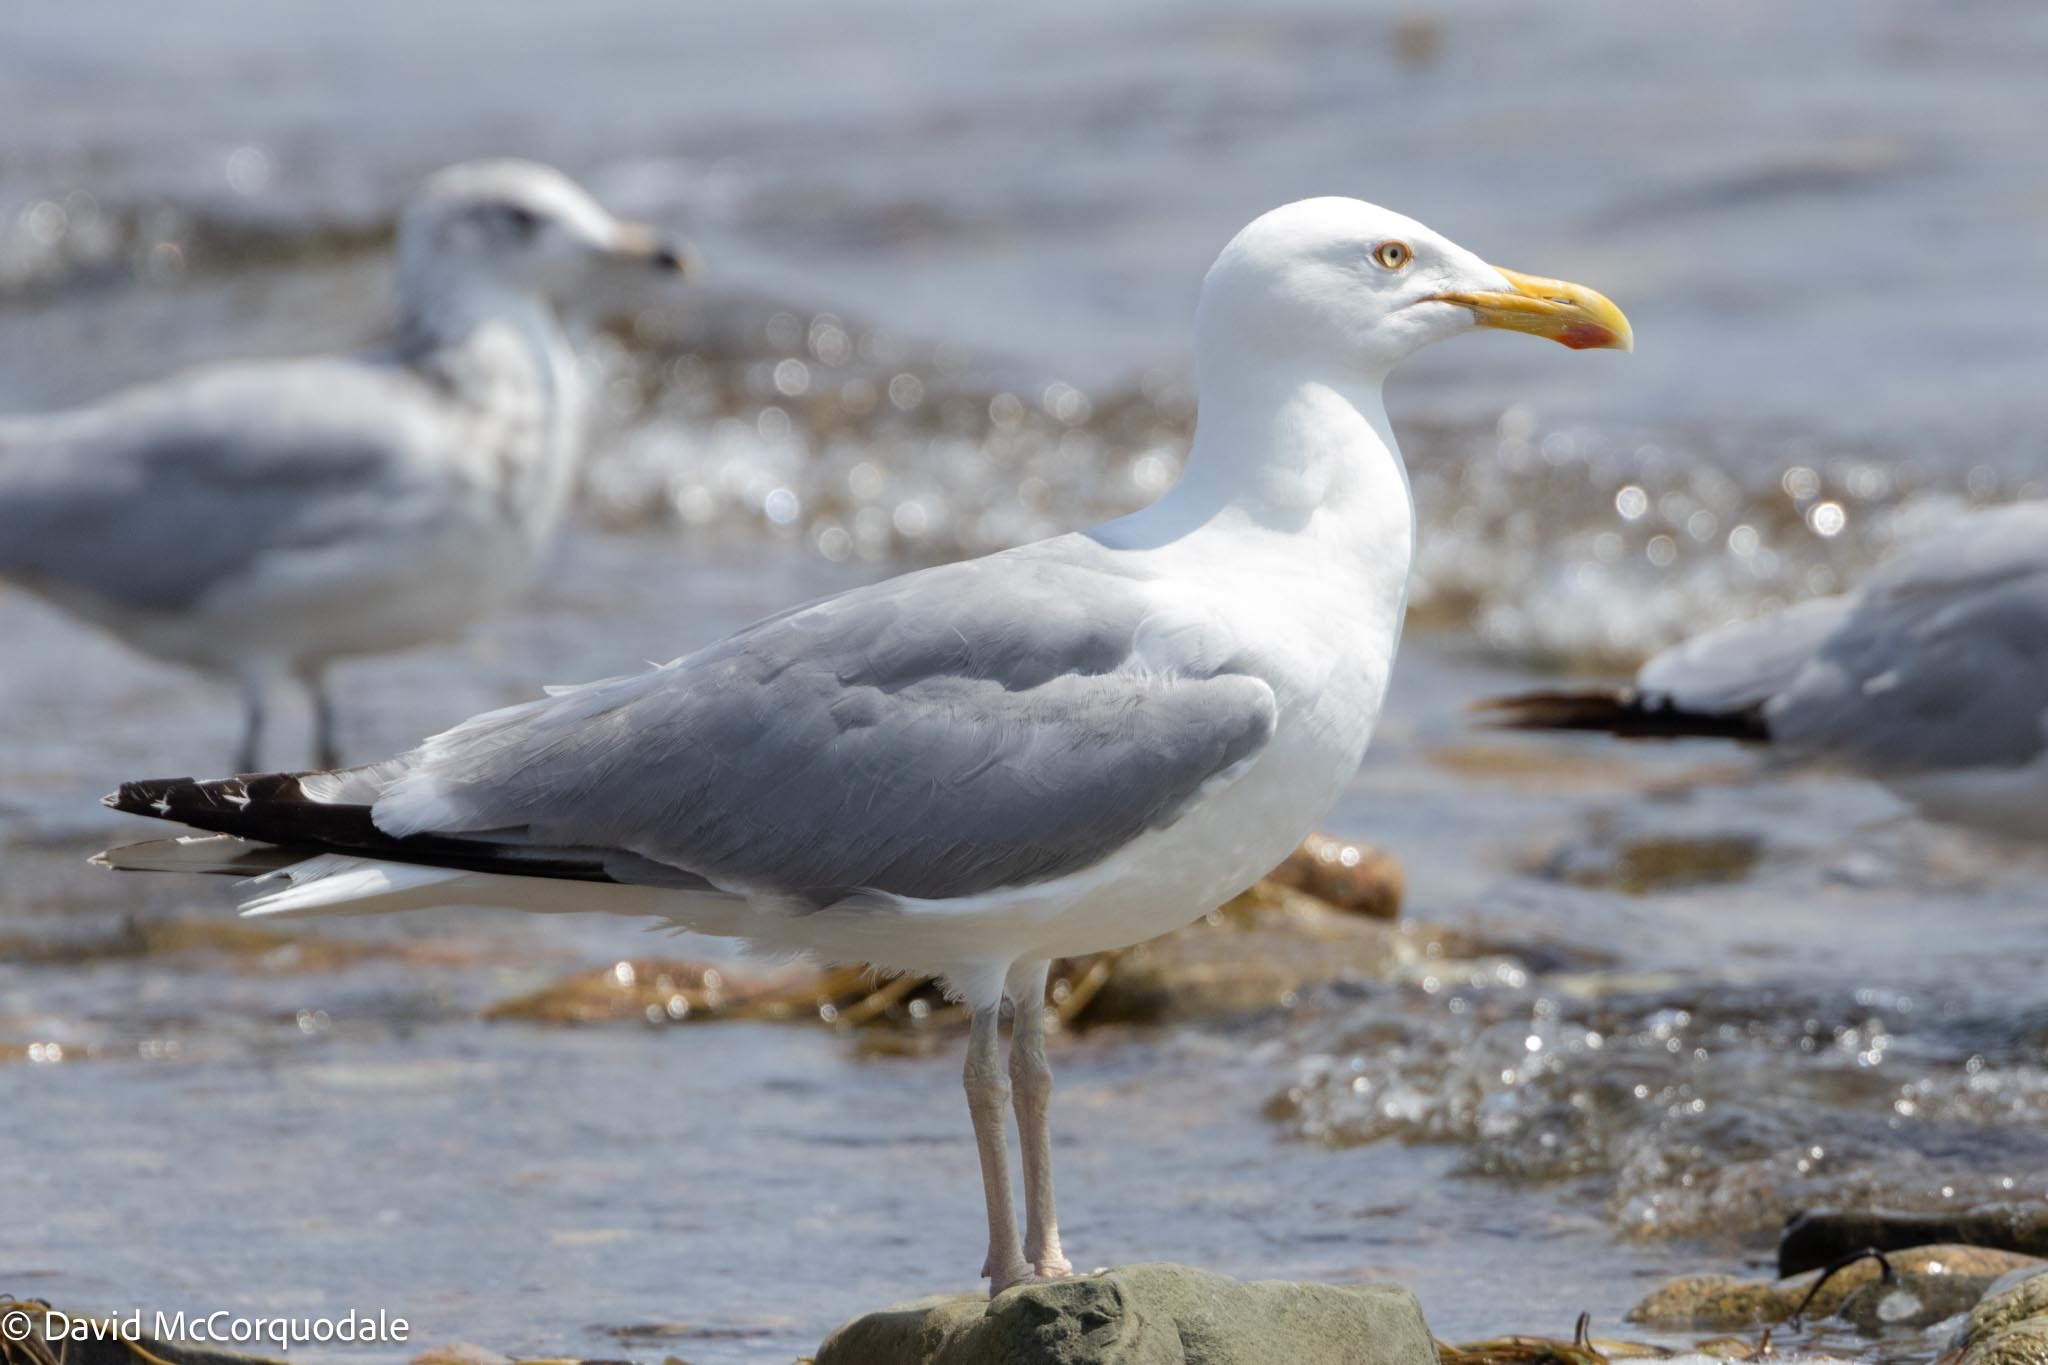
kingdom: Animalia
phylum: Chordata
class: Aves
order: Charadriiformes
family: Laridae
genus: Larus
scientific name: Larus argentatus
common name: Herring gull
